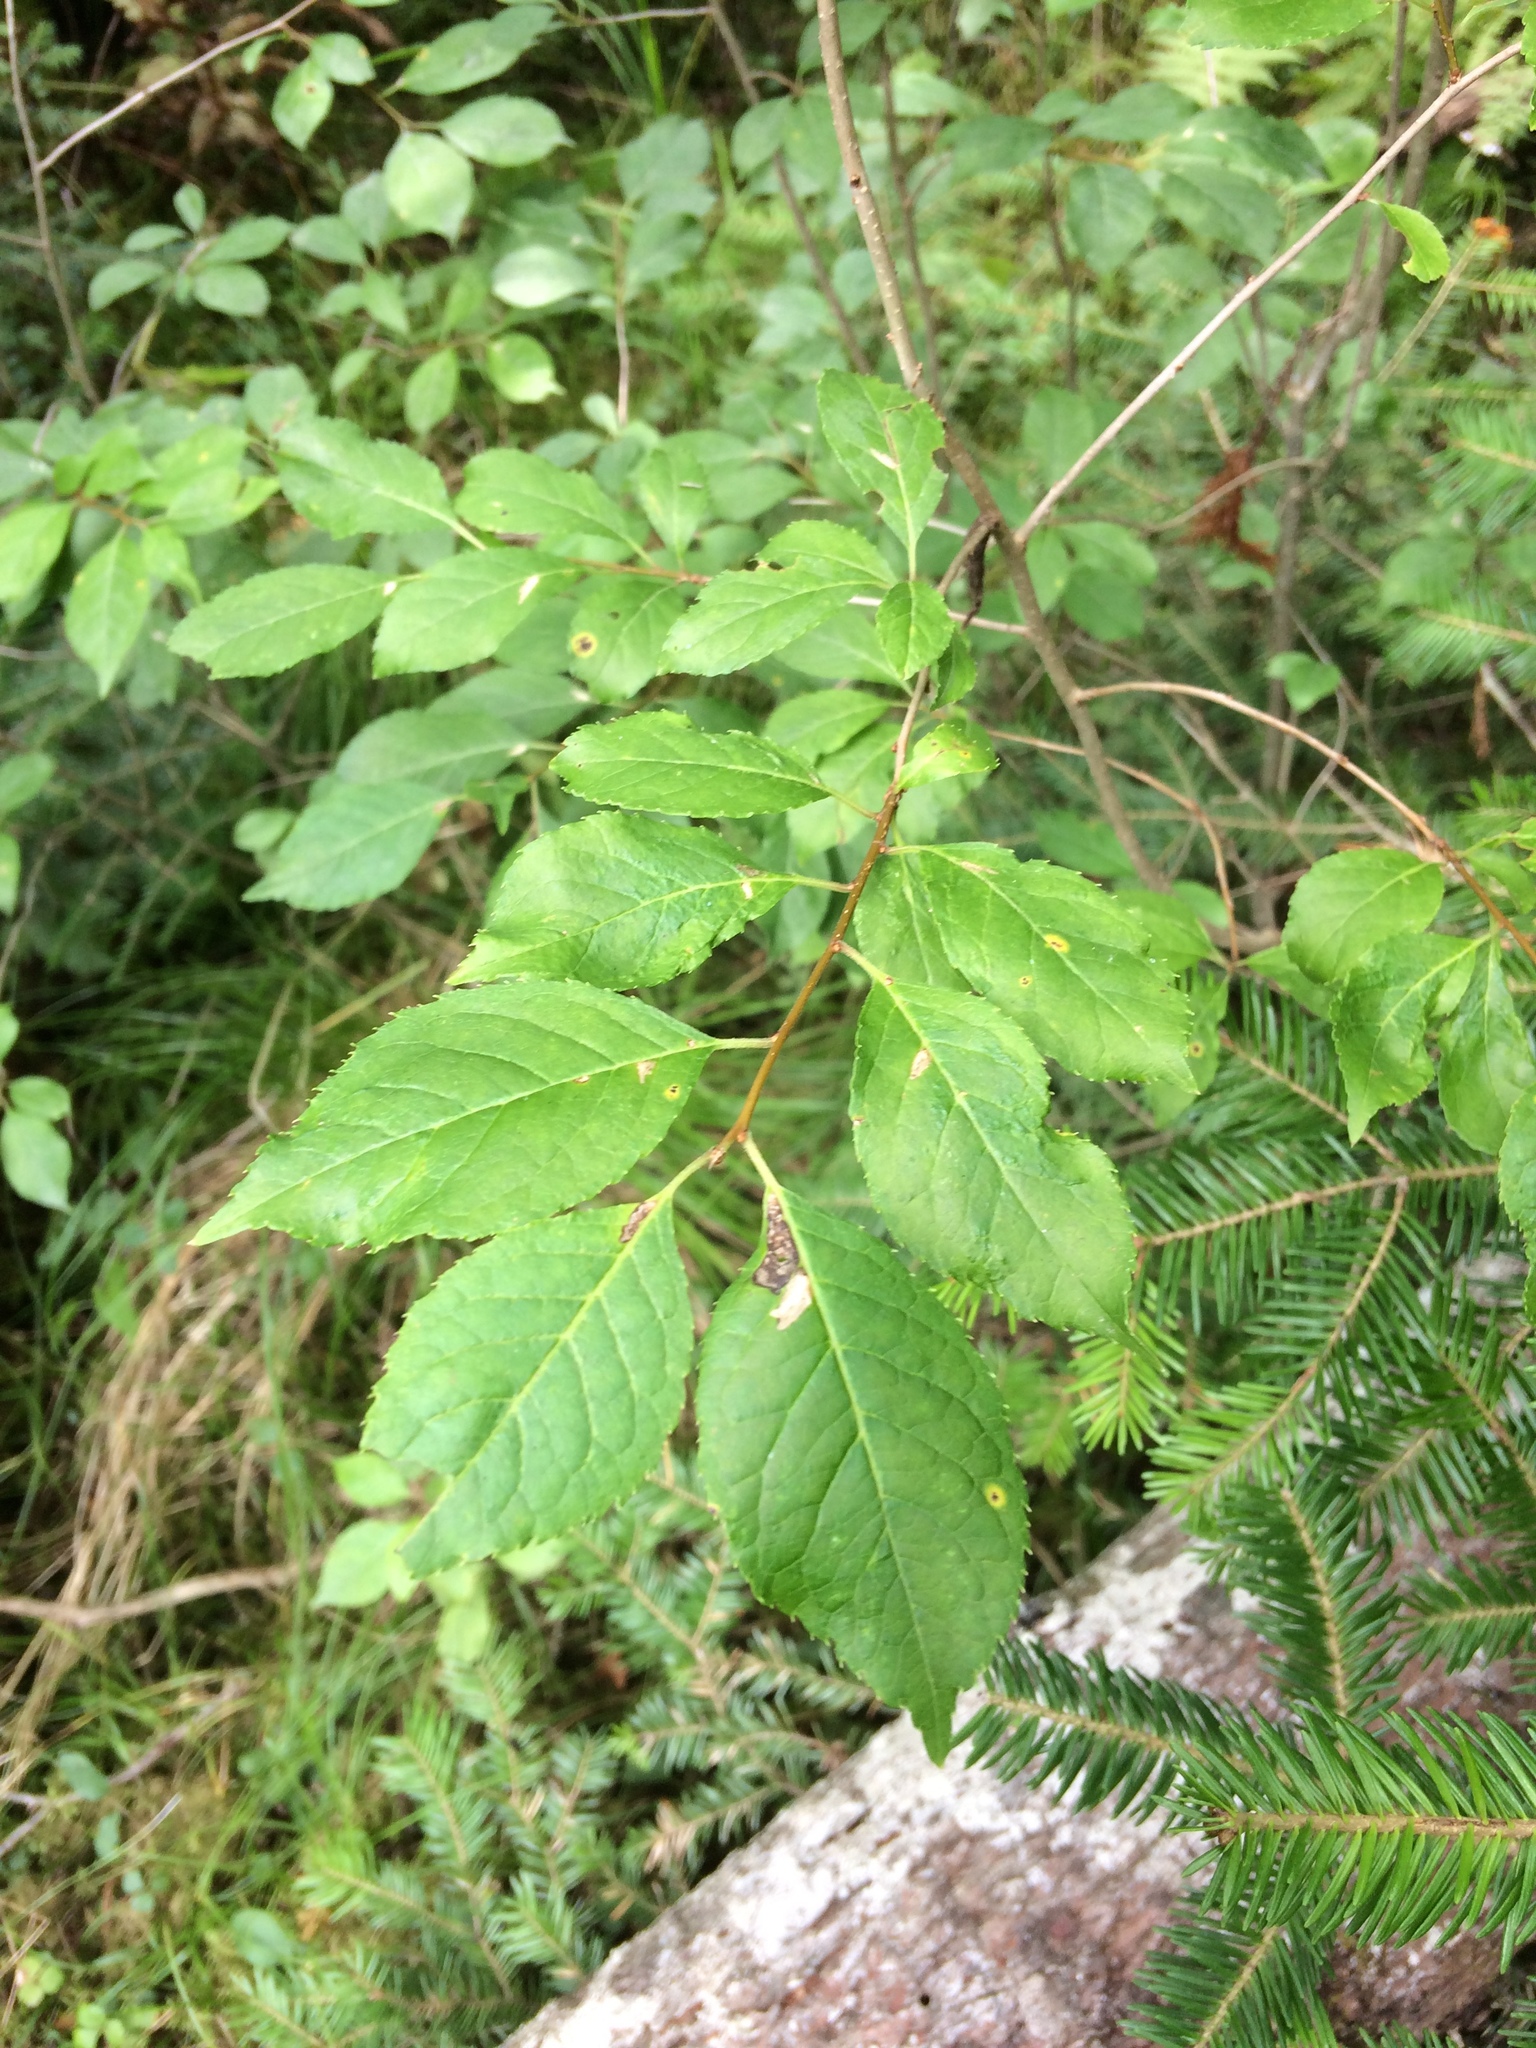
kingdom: Plantae
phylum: Tracheophyta
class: Magnoliopsida
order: Aquifoliales
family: Aquifoliaceae
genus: Ilex
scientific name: Ilex verticillata
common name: Virginia winterberry
